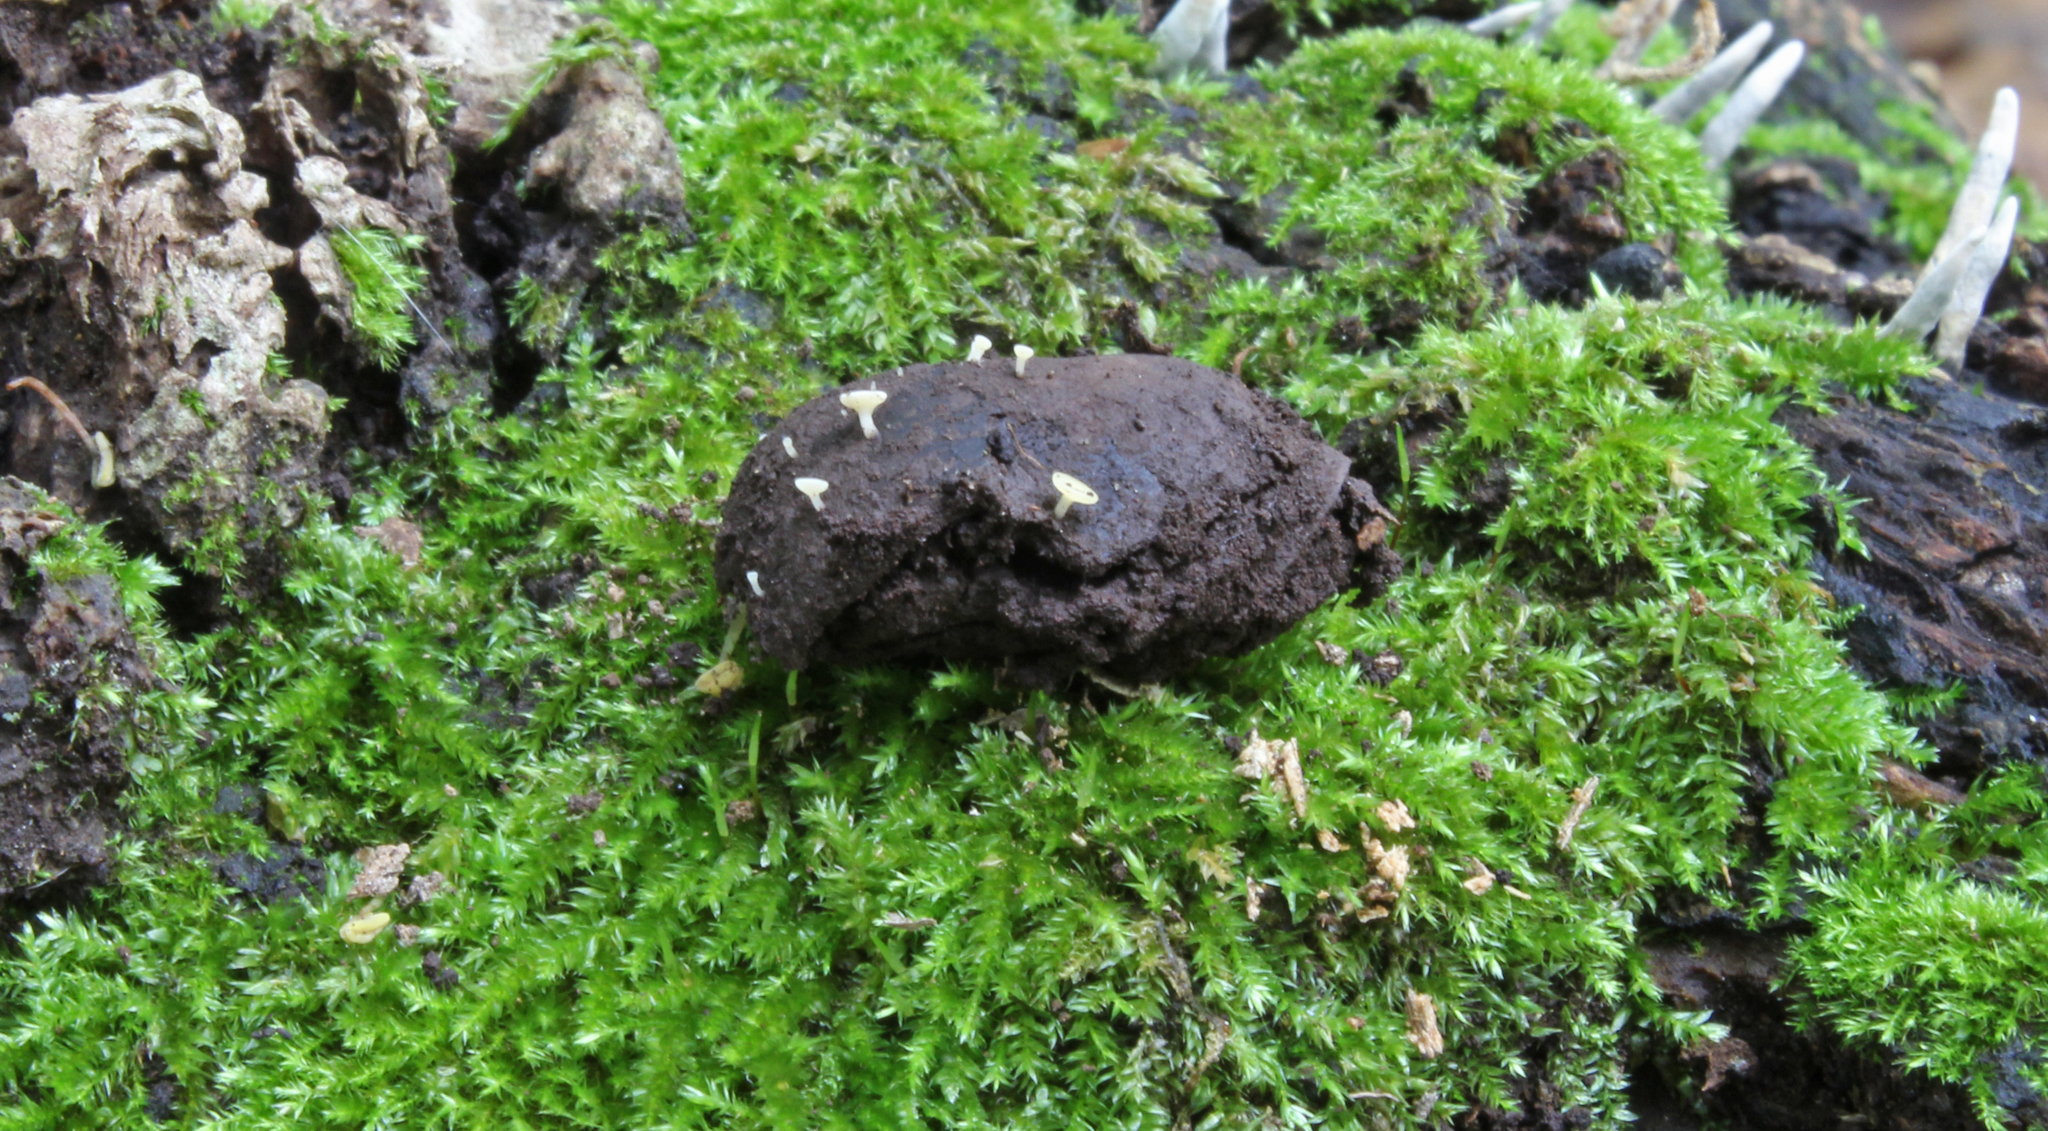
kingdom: Fungi
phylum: Ascomycota
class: Leotiomycetes
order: Helotiales
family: Helotiaceae
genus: Hymenoscyphus
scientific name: Hymenoscyphus fructigenus
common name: Nut disco
